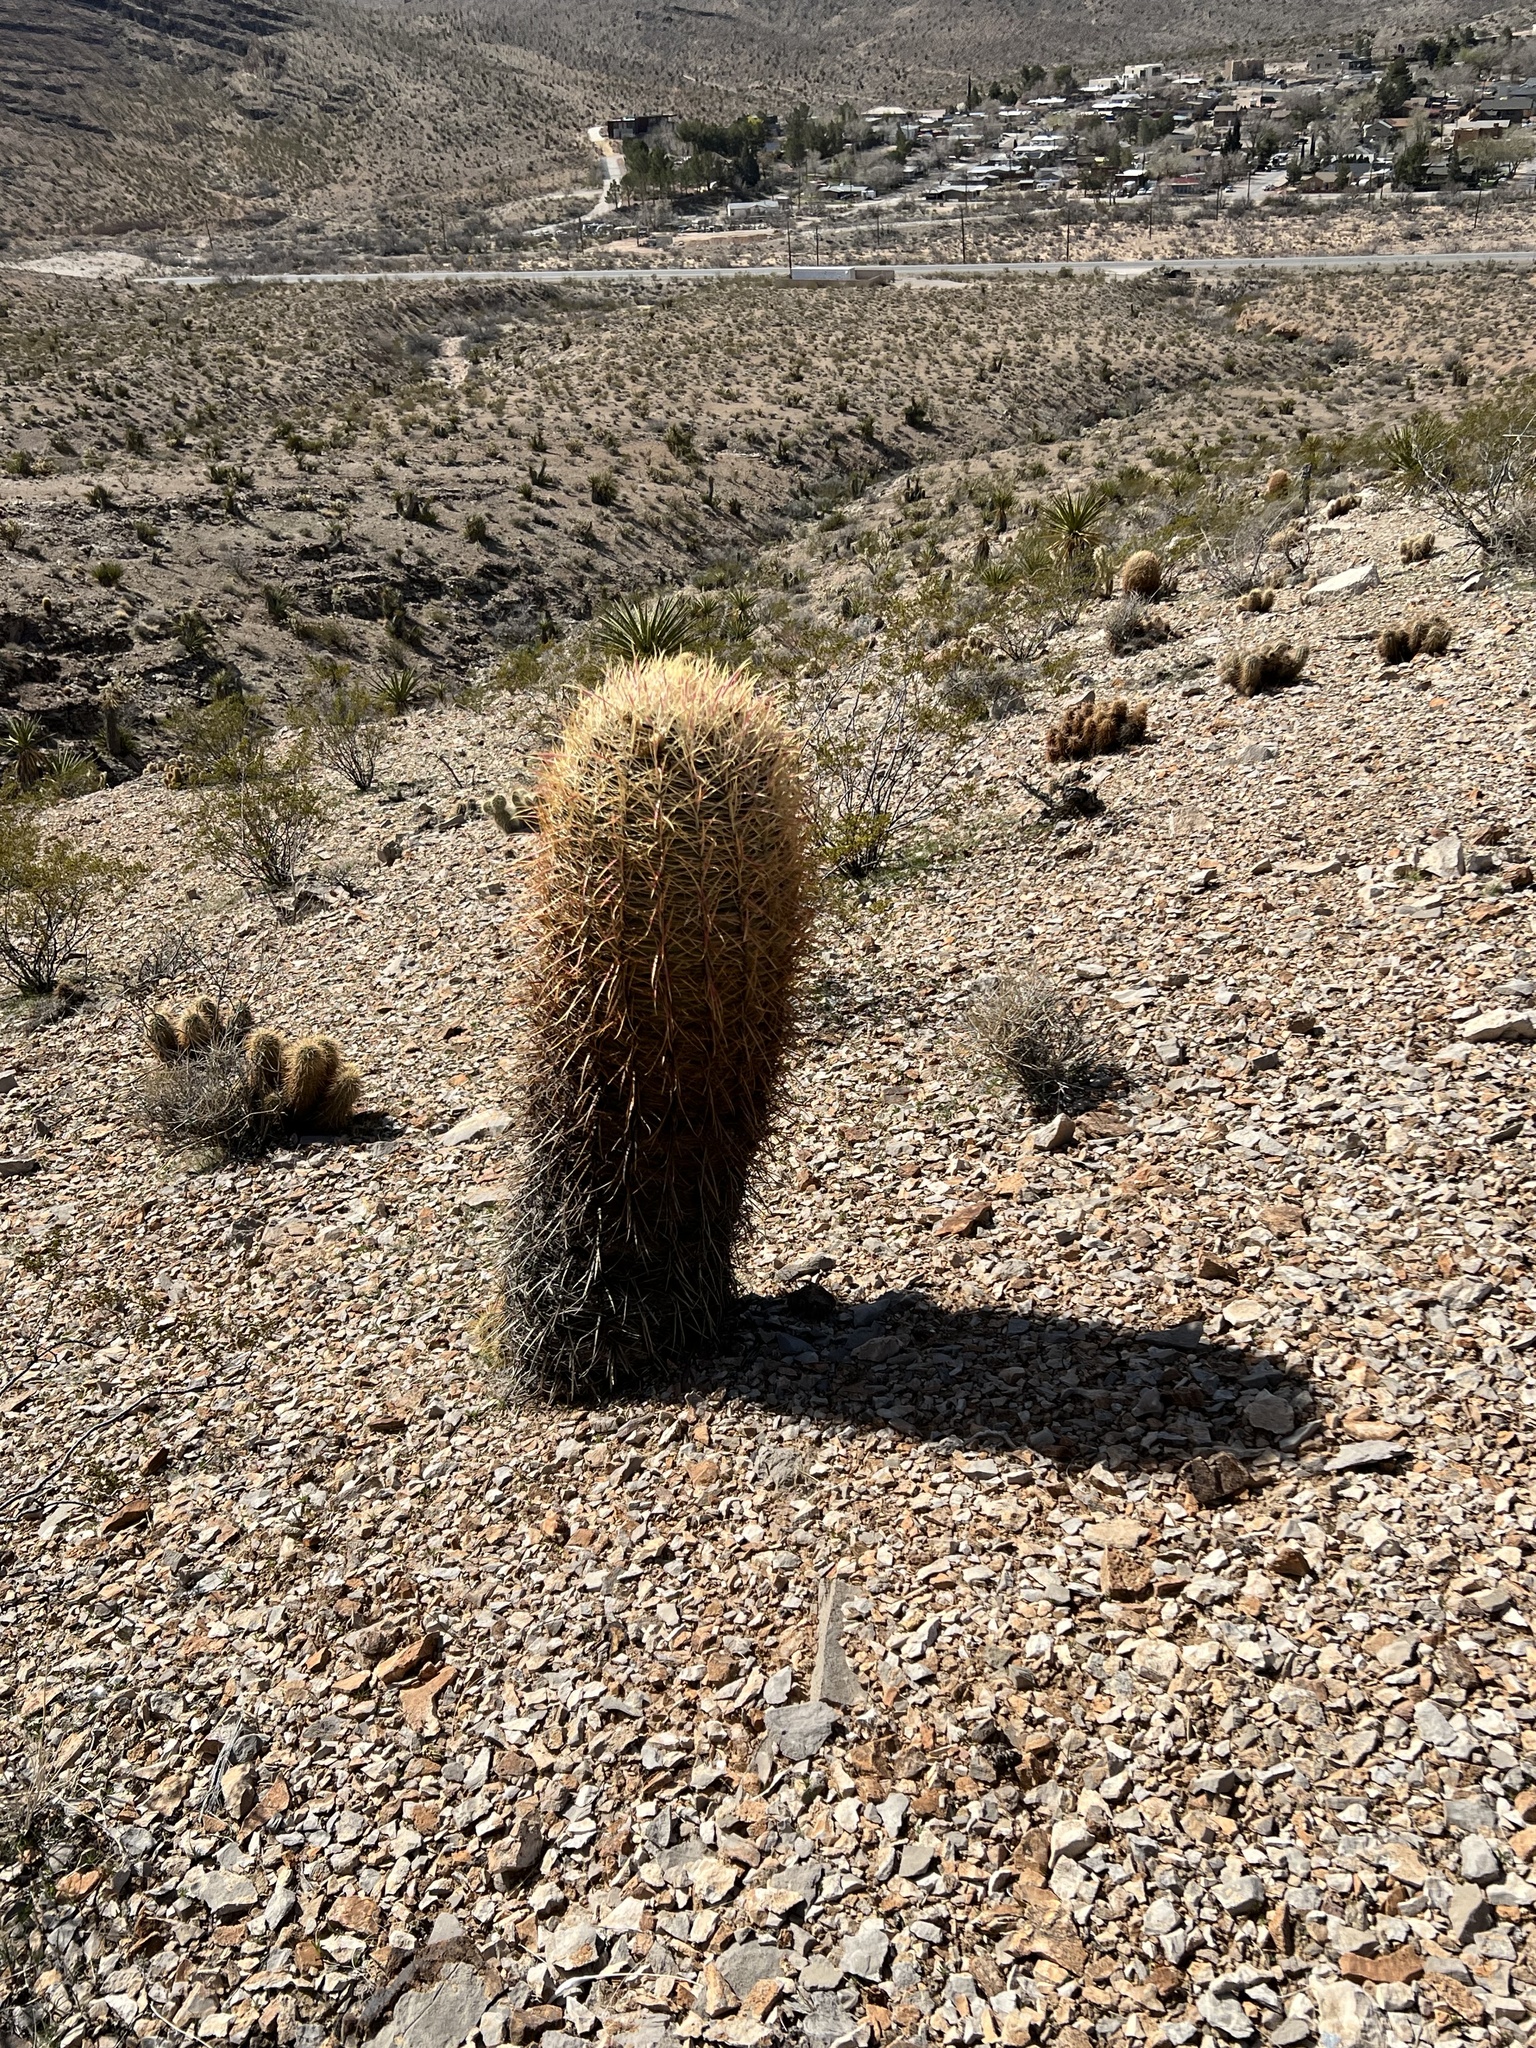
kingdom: Plantae
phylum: Tracheophyta
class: Magnoliopsida
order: Caryophyllales
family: Cactaceae
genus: Ferocactus
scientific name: Ferocactus cylindraceus
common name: California barrel cactus
